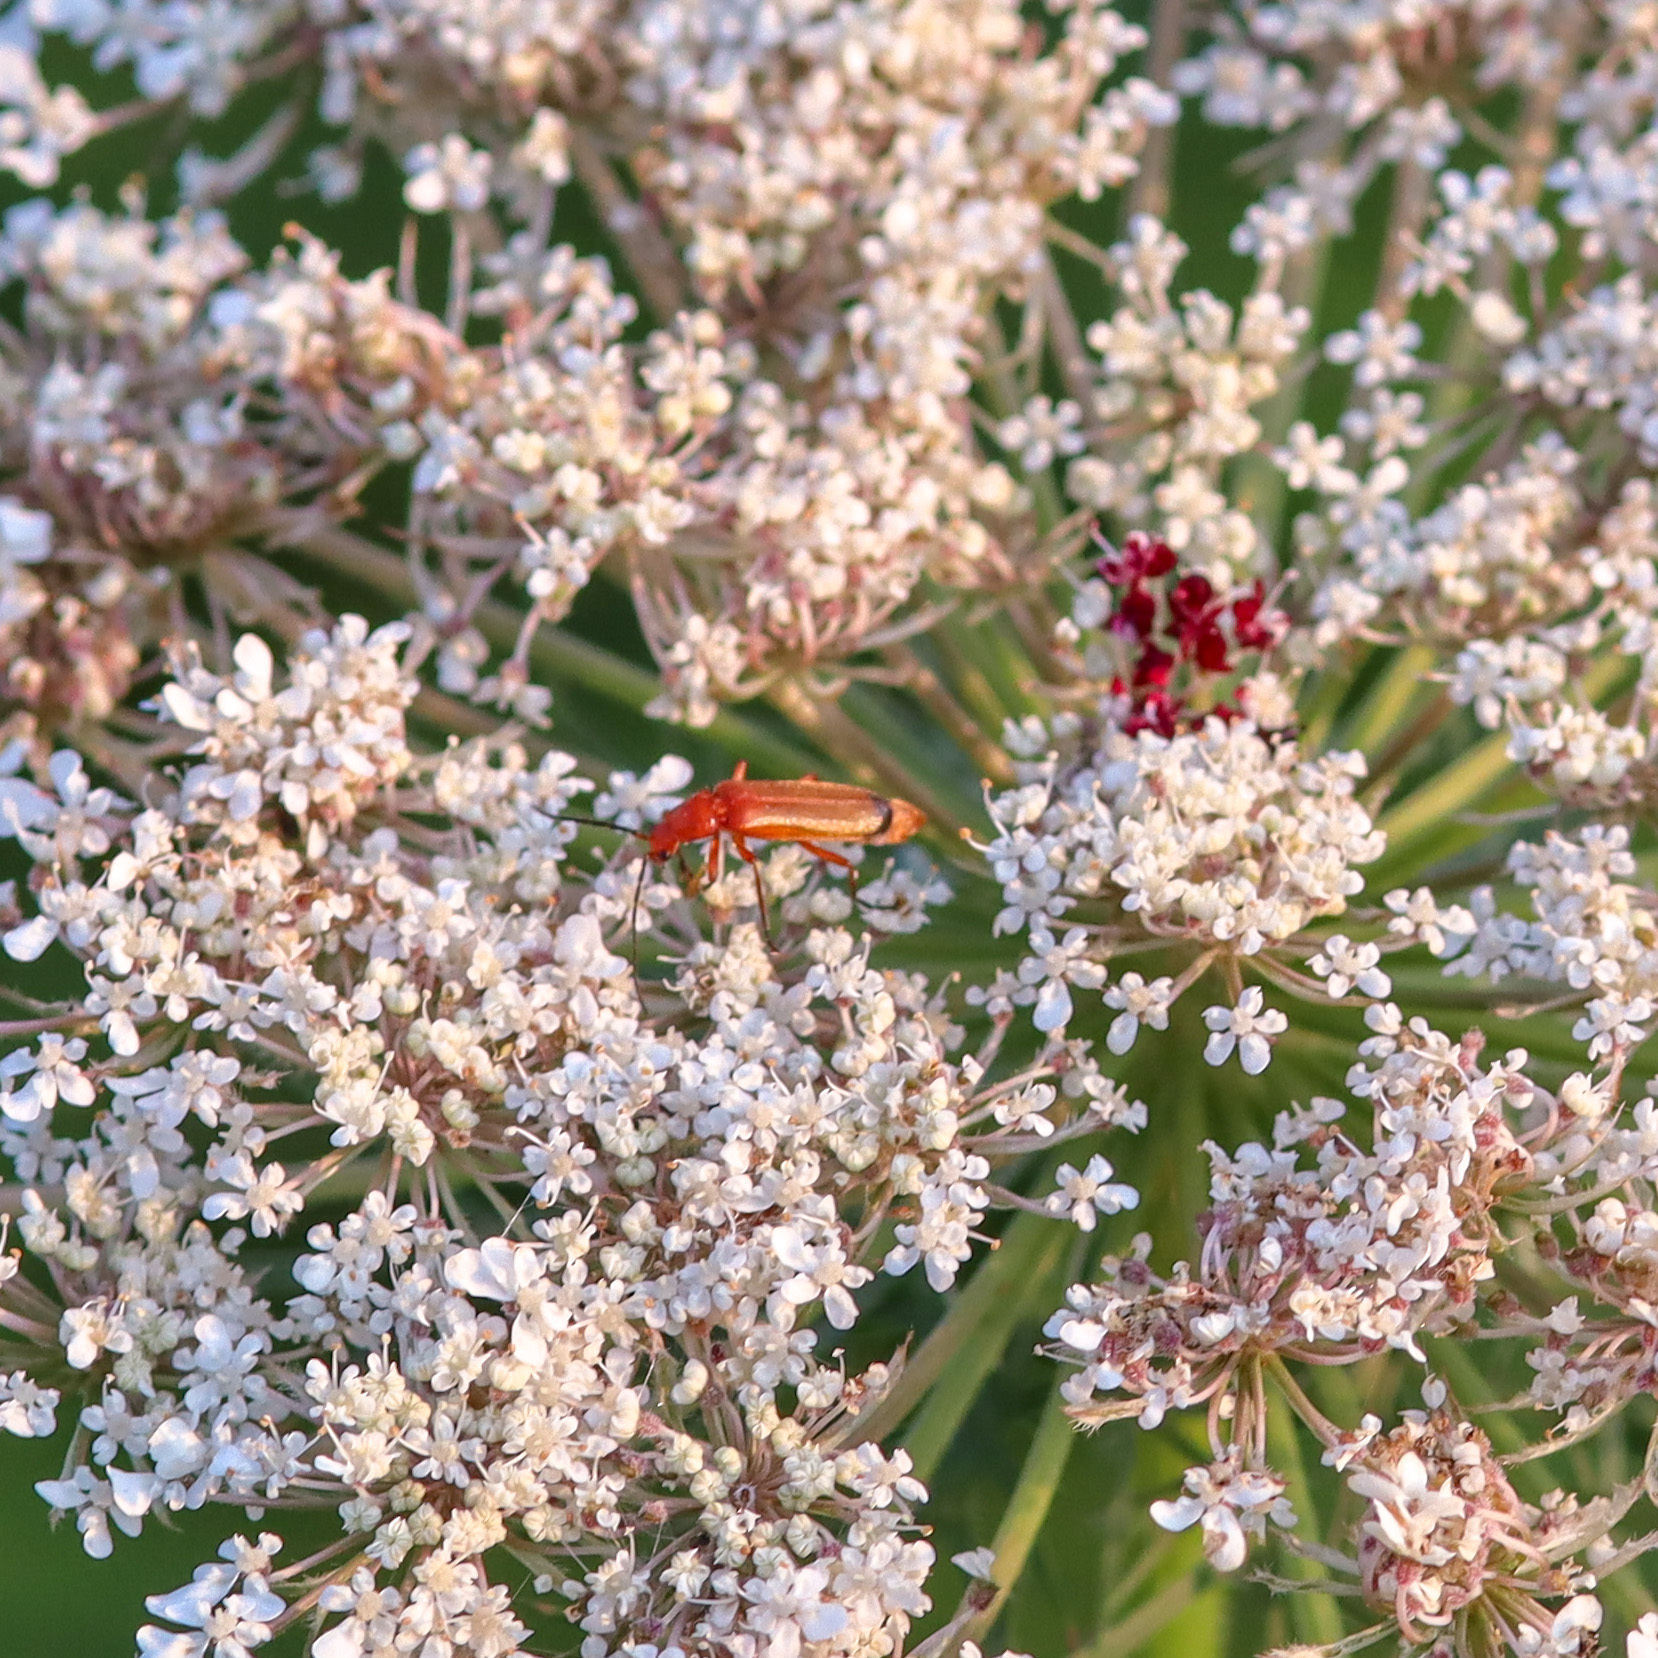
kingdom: Animalia
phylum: Arthropoda
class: Insecta
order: Coleoptera
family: Cantharidae
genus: Rhagonycha
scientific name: Rhagonycha fulva
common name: Common red soldier beetle
